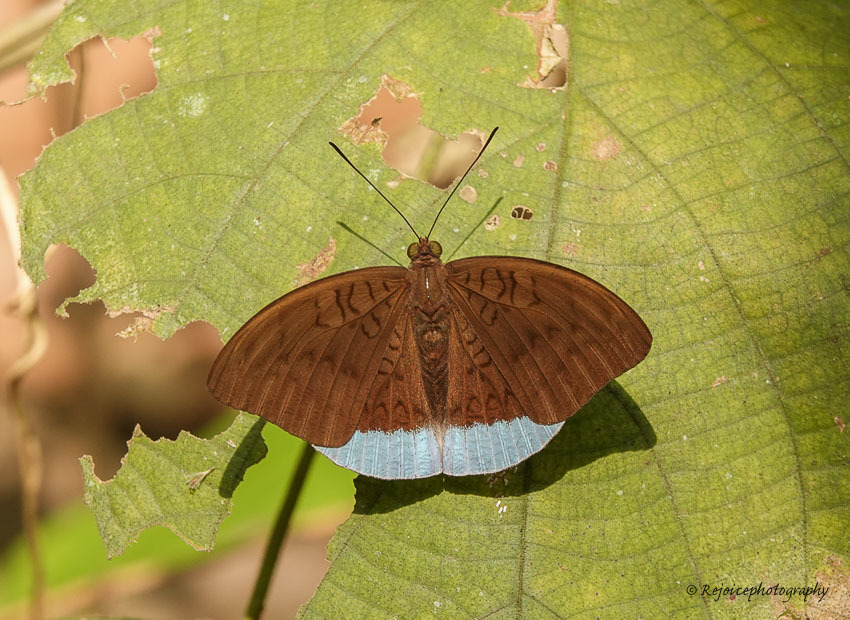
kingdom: Animalia
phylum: Arthropoda
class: Insecta
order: Lepidoptera
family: Nymphalidae
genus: Tanaecia
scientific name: Tanaecia julii
